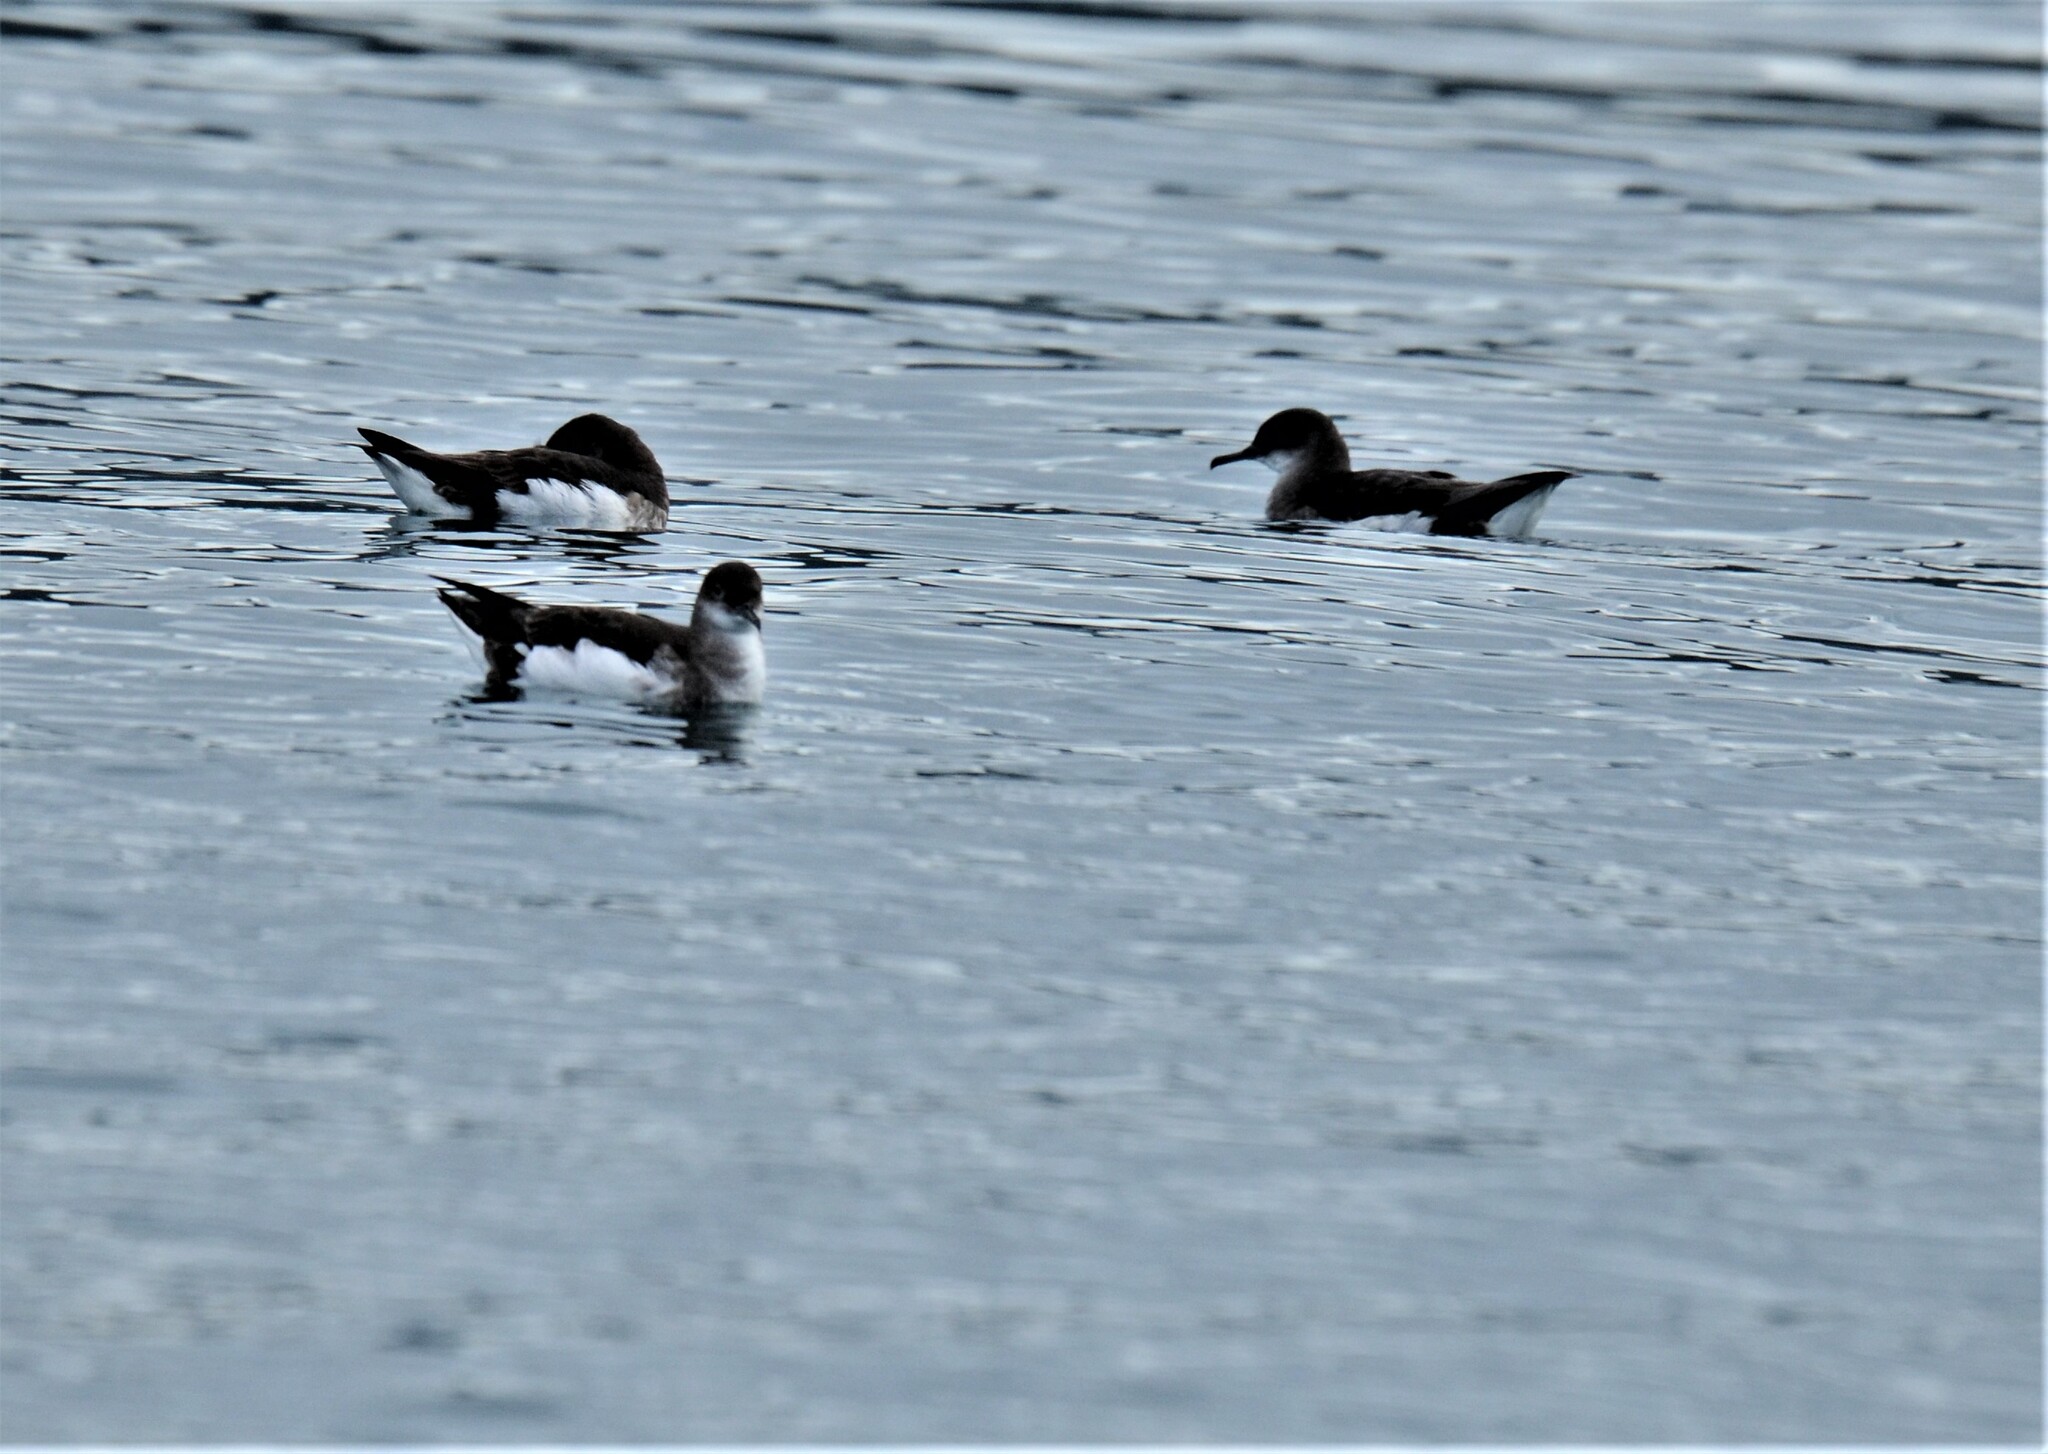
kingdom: Animalia
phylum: Chordata
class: Aves
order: Procellariiformes
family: Procellariidae
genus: Puffinus
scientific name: Puffinus gavia
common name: Fluttering shearwater
